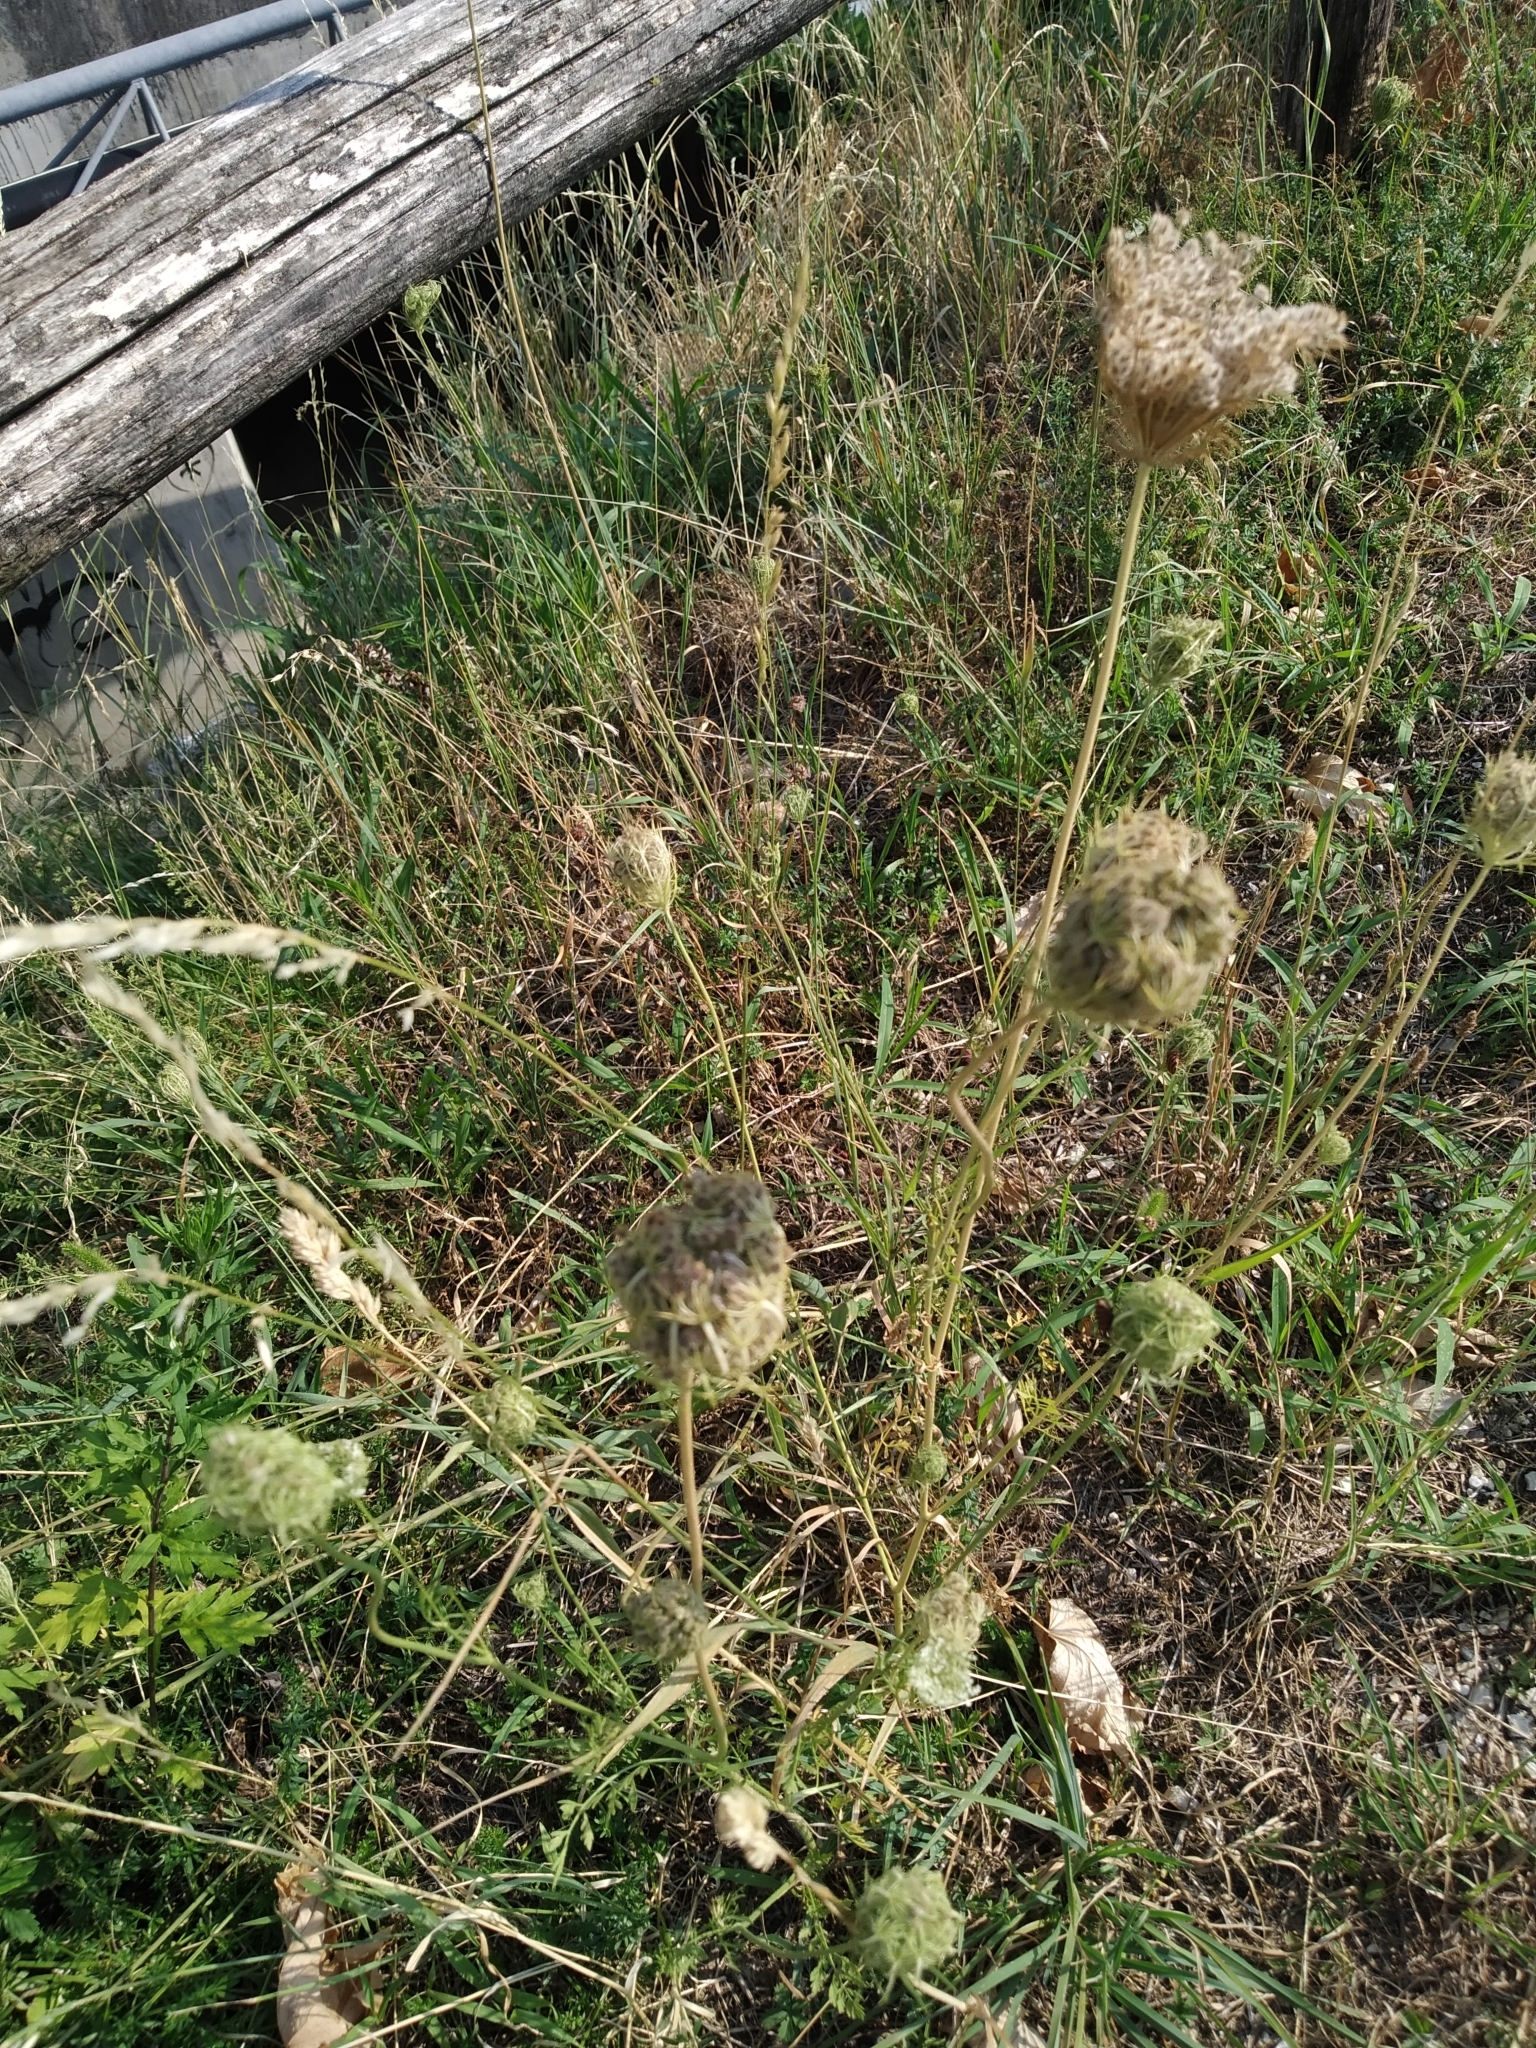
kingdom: Plantae
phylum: Tracheophyta
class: Magnoliopsida
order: Apiales
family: Apiaceae
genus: Daucus
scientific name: Daucus carota
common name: Wild carrot
